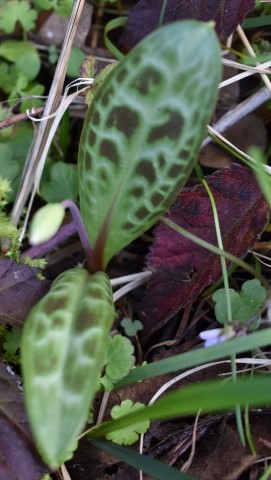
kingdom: Plantae
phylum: Tracheophyta
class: Liliopsida
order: Liliales
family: Liliaceae
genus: Erythronium
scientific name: Erythronium oregonum
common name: Giant adder's-tongue
